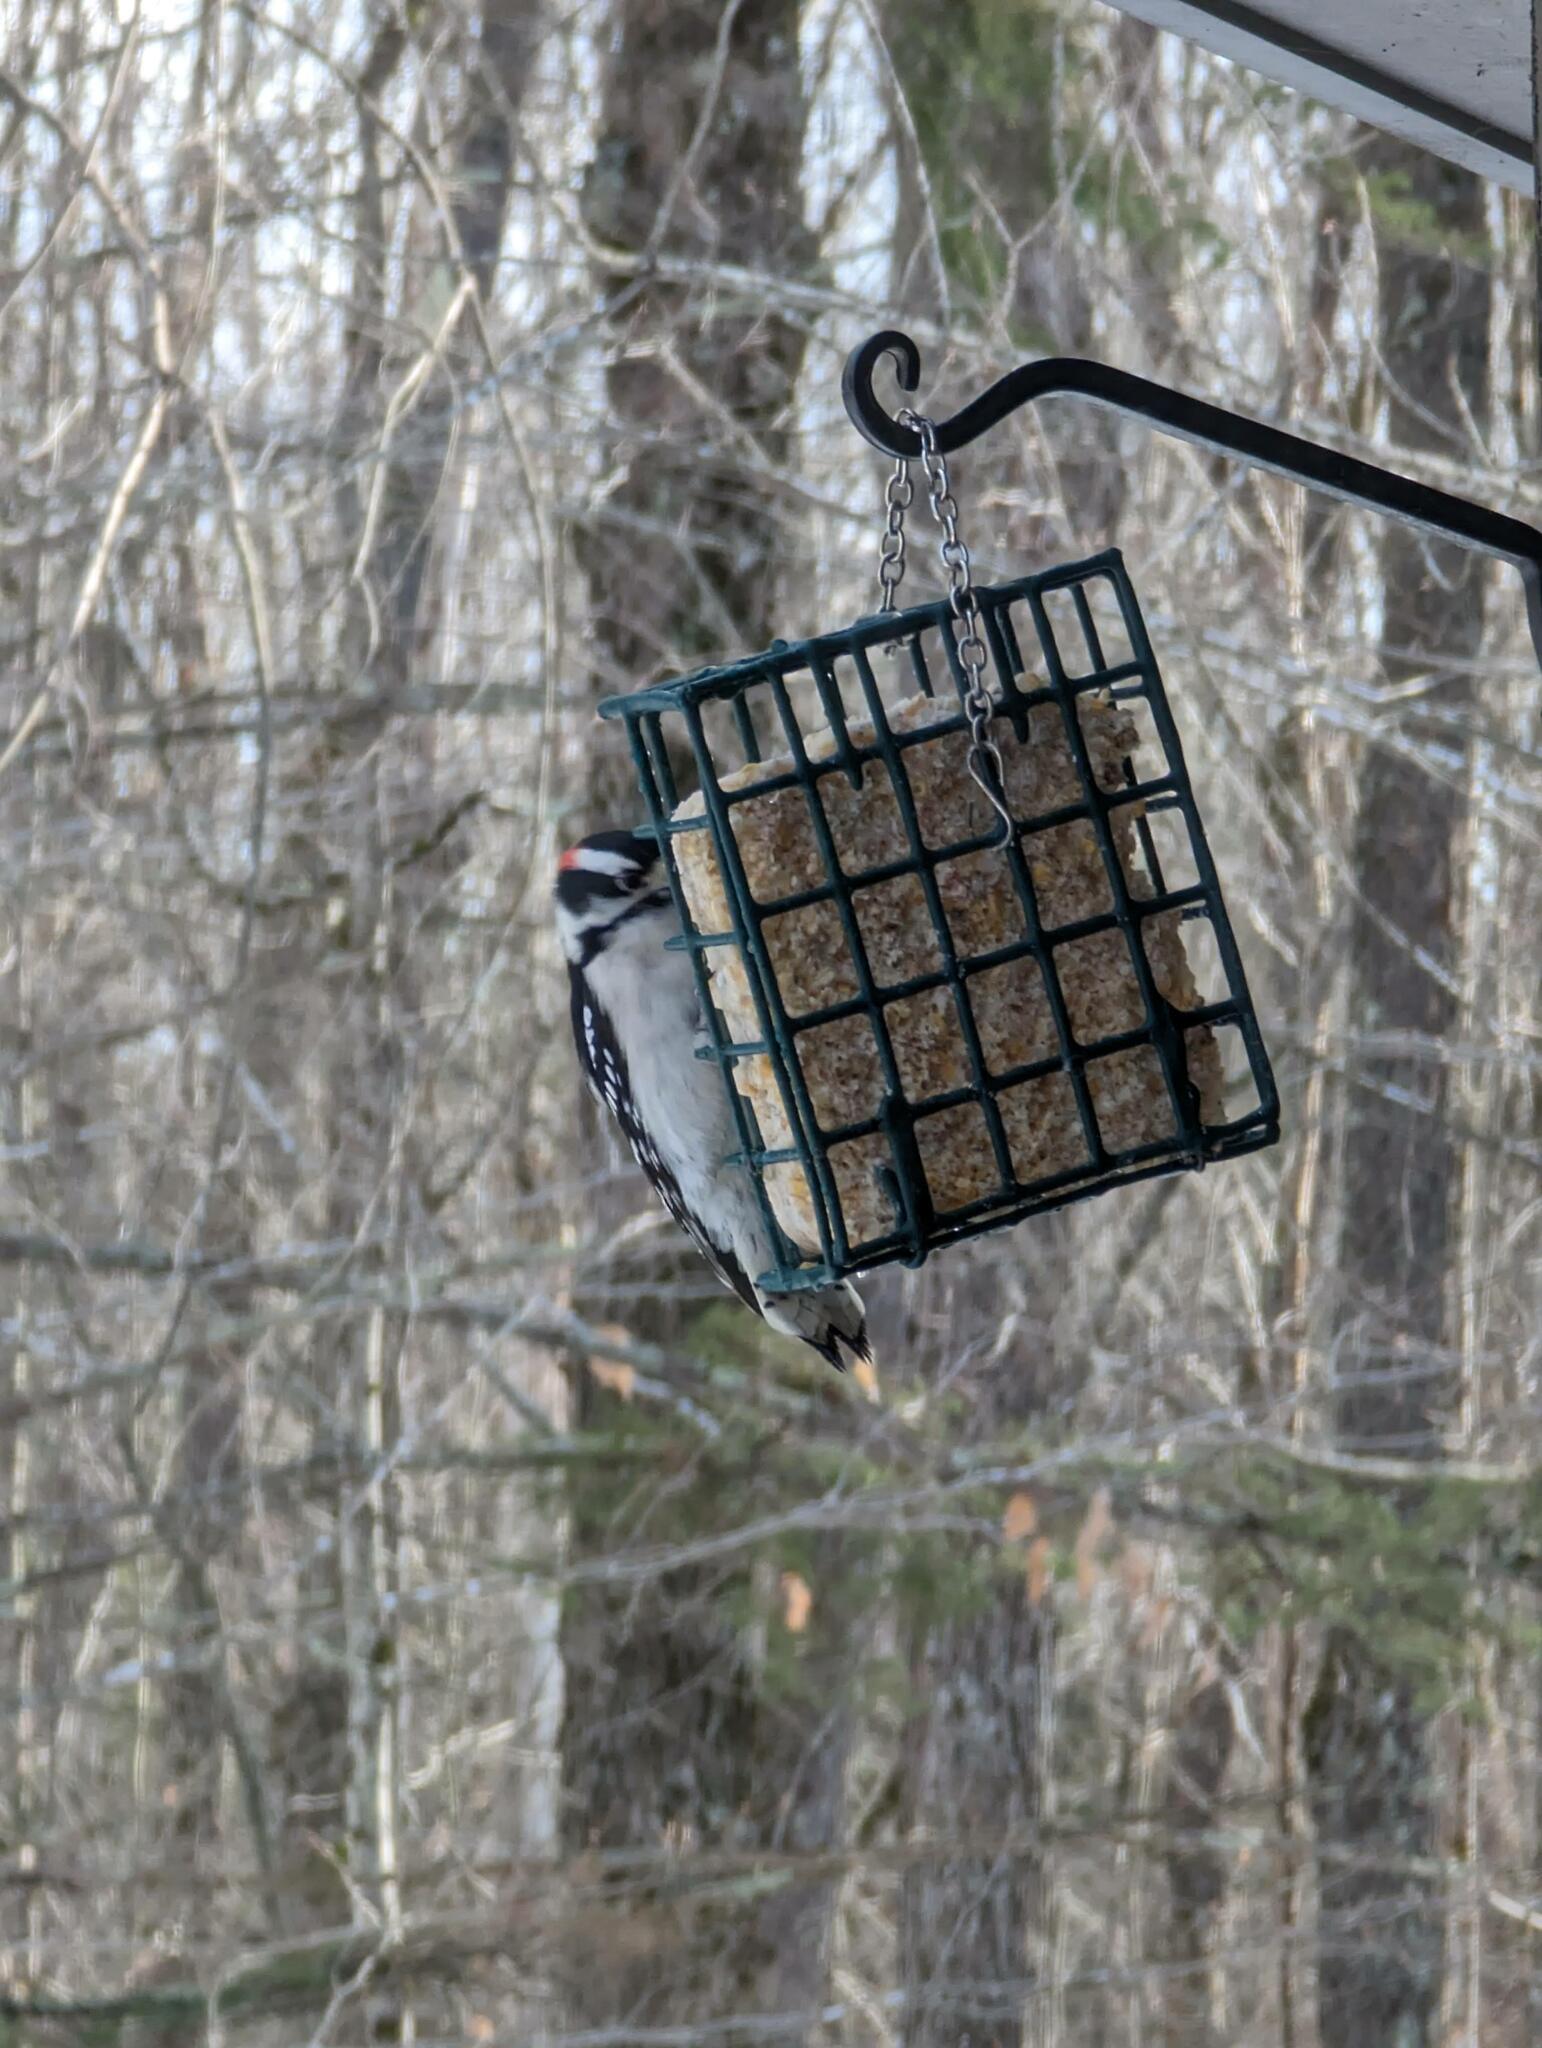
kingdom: Animalia
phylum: Chordata
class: Aves
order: Piciformes
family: Picidae
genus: Dryobates
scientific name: Dryobates pubescens
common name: Downy woodpecker
